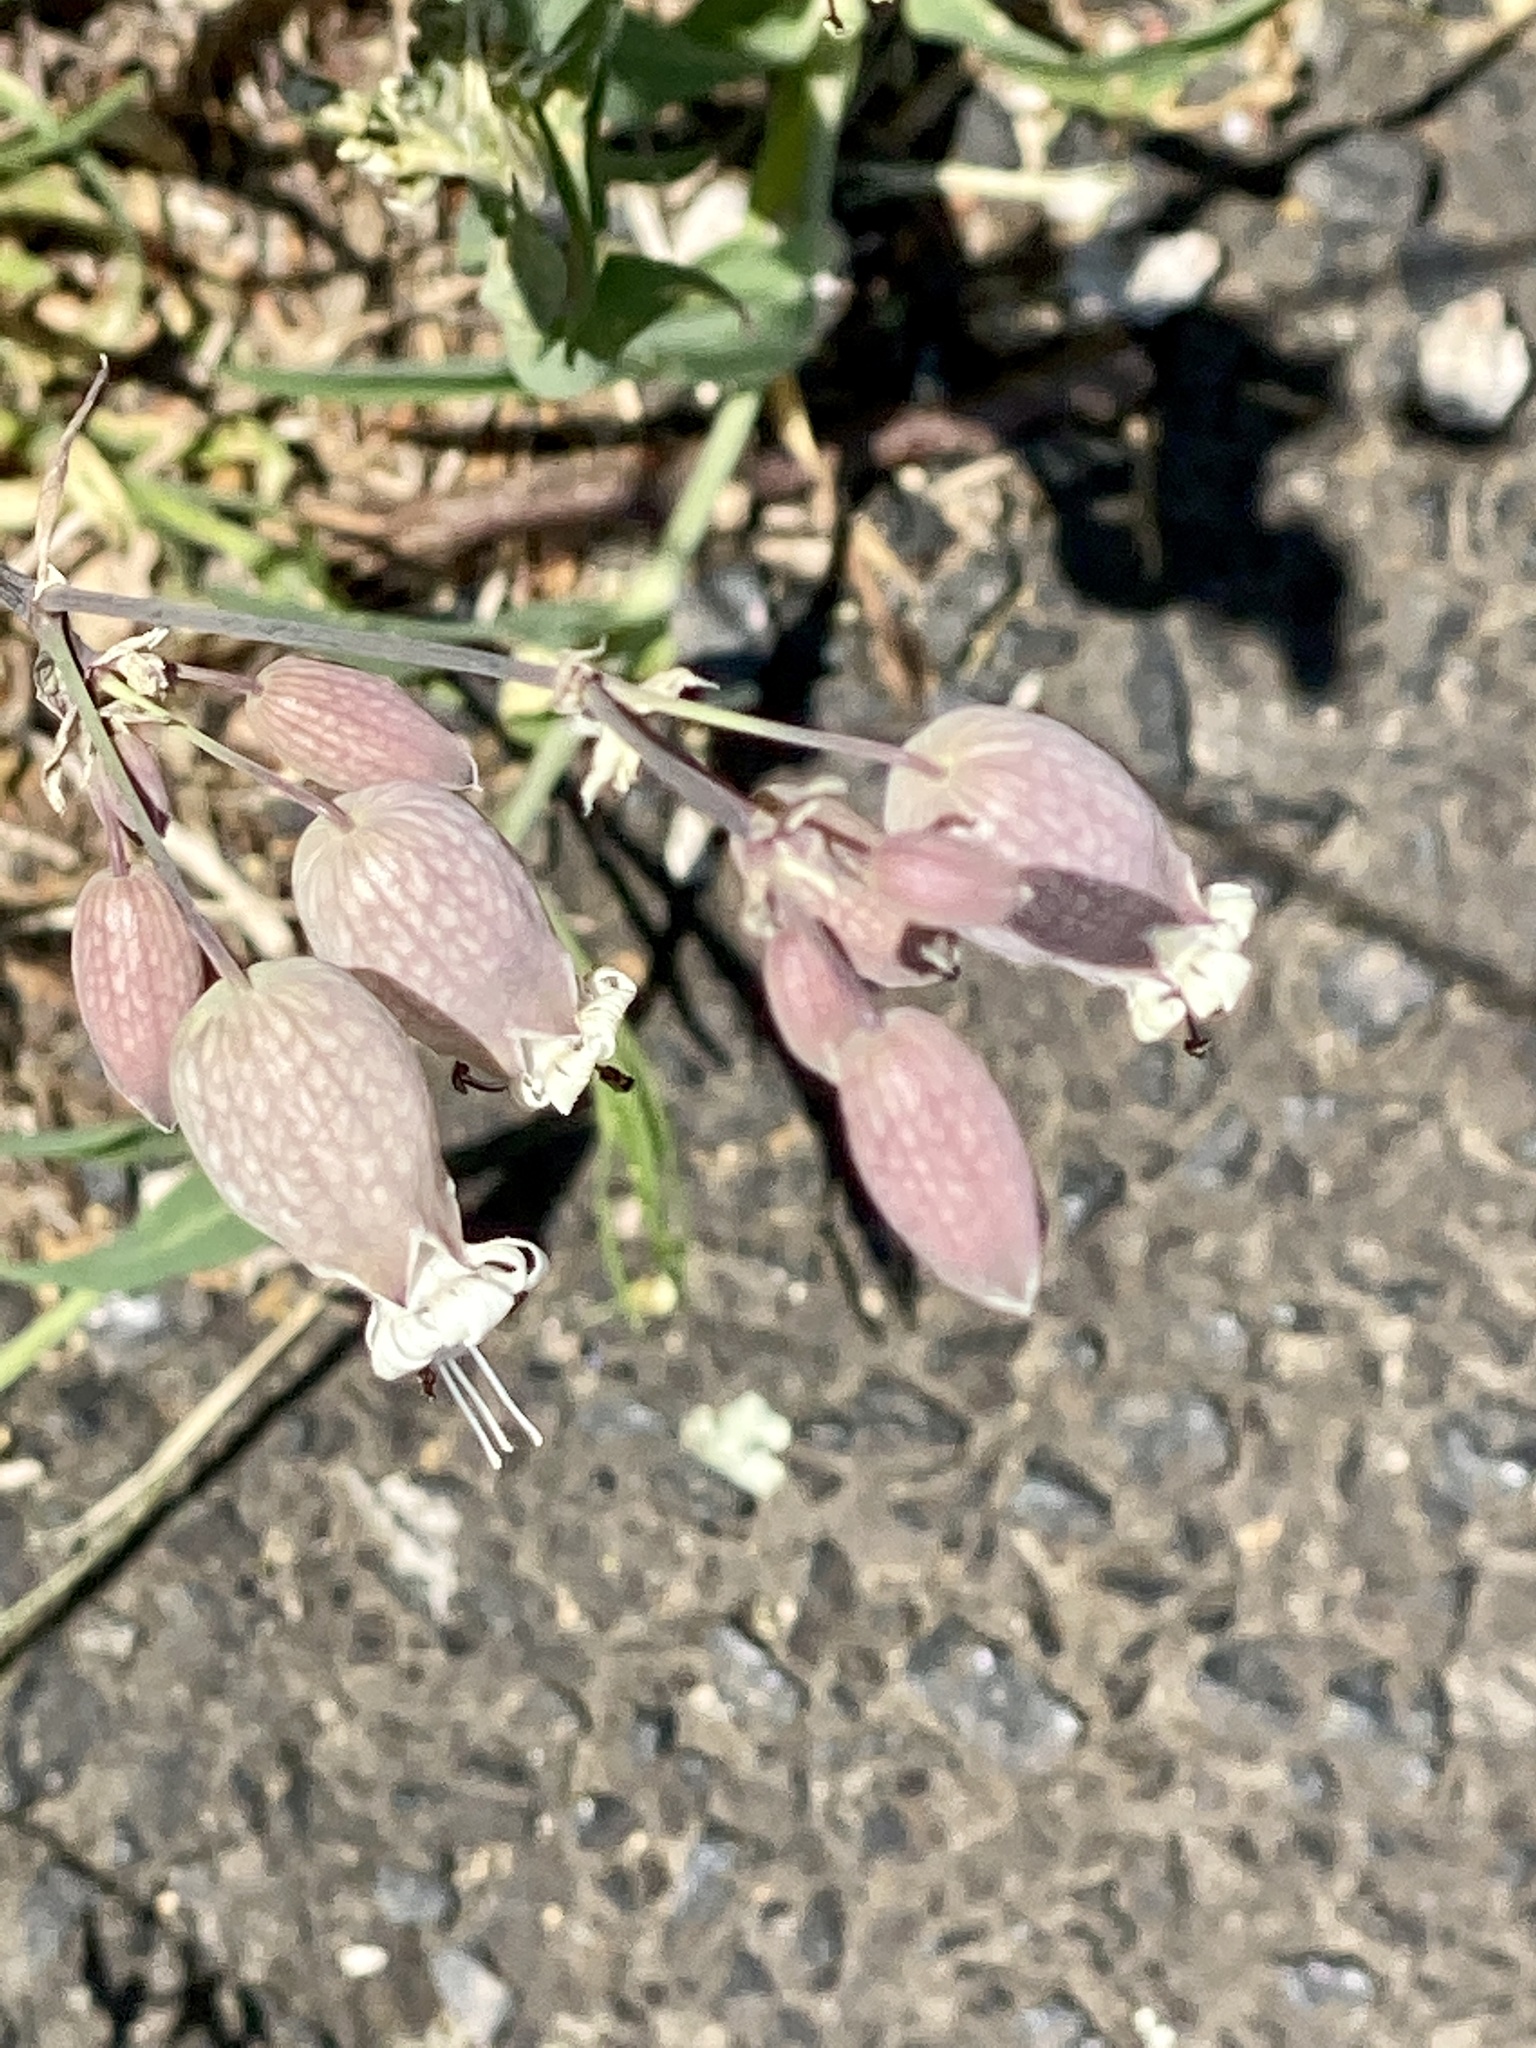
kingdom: Plantae
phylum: Tracheophyta
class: Magnoliopsida
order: Caryophyllales
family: Caryophyllaceae
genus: Silene
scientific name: Silene vulgaris
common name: Bladder campion
